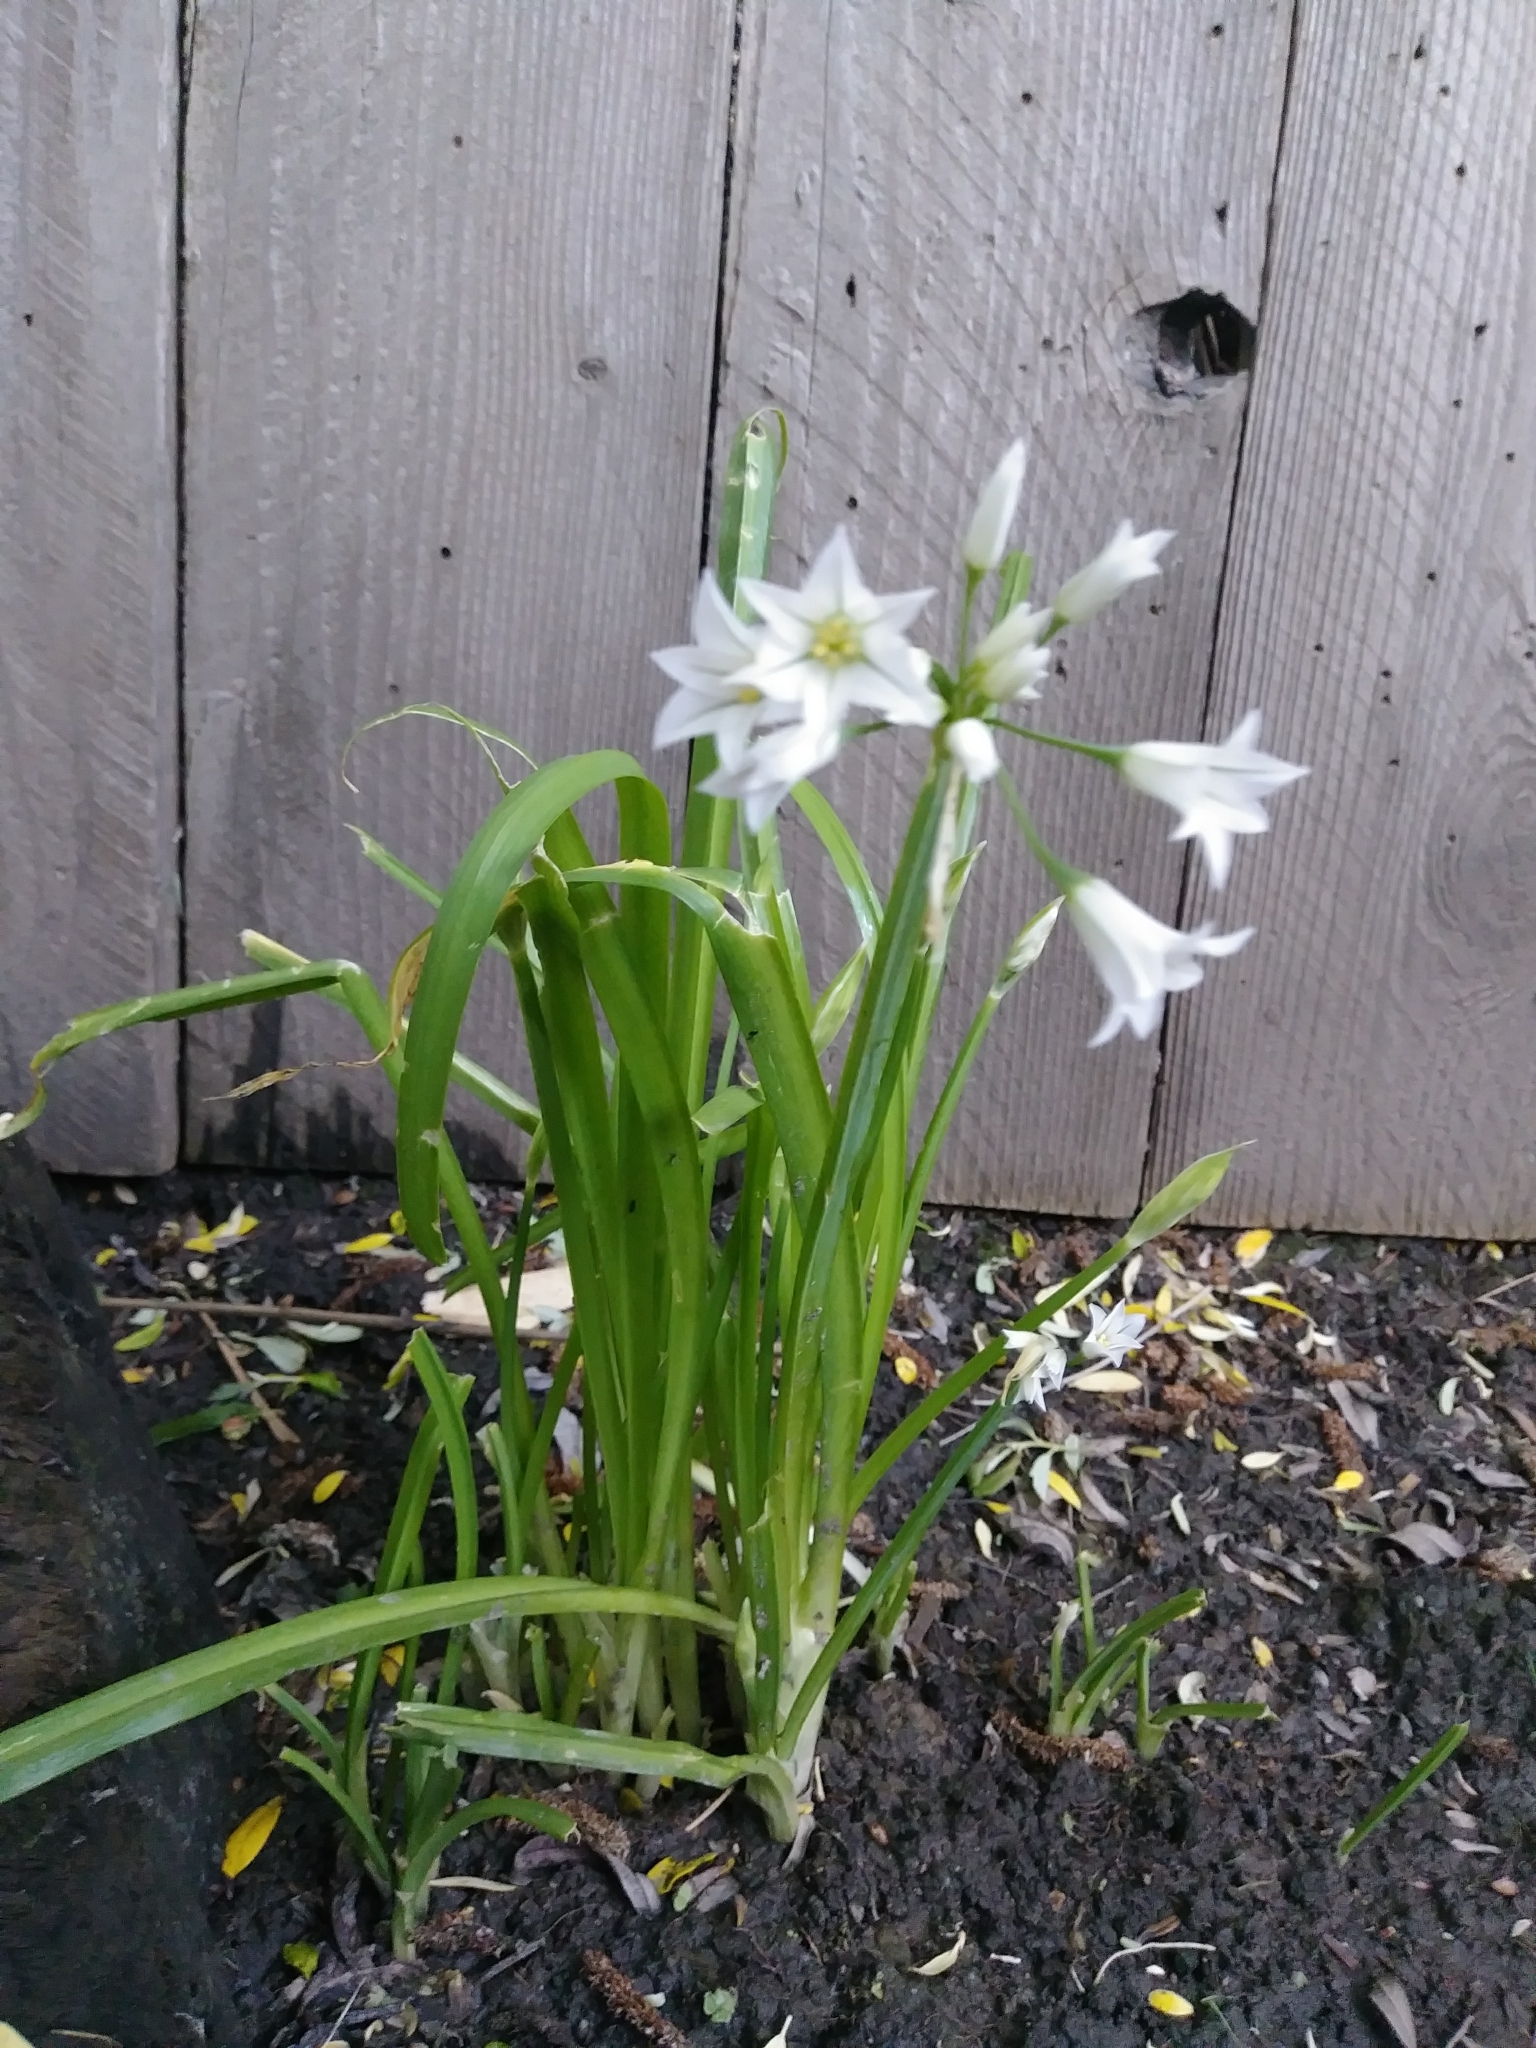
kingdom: Plantae
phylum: Tracheophyta
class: Liliopsida
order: Asparagales
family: Amaryllidaceae
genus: Allium
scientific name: Allium triquetrum
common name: Three-cornered garlic
